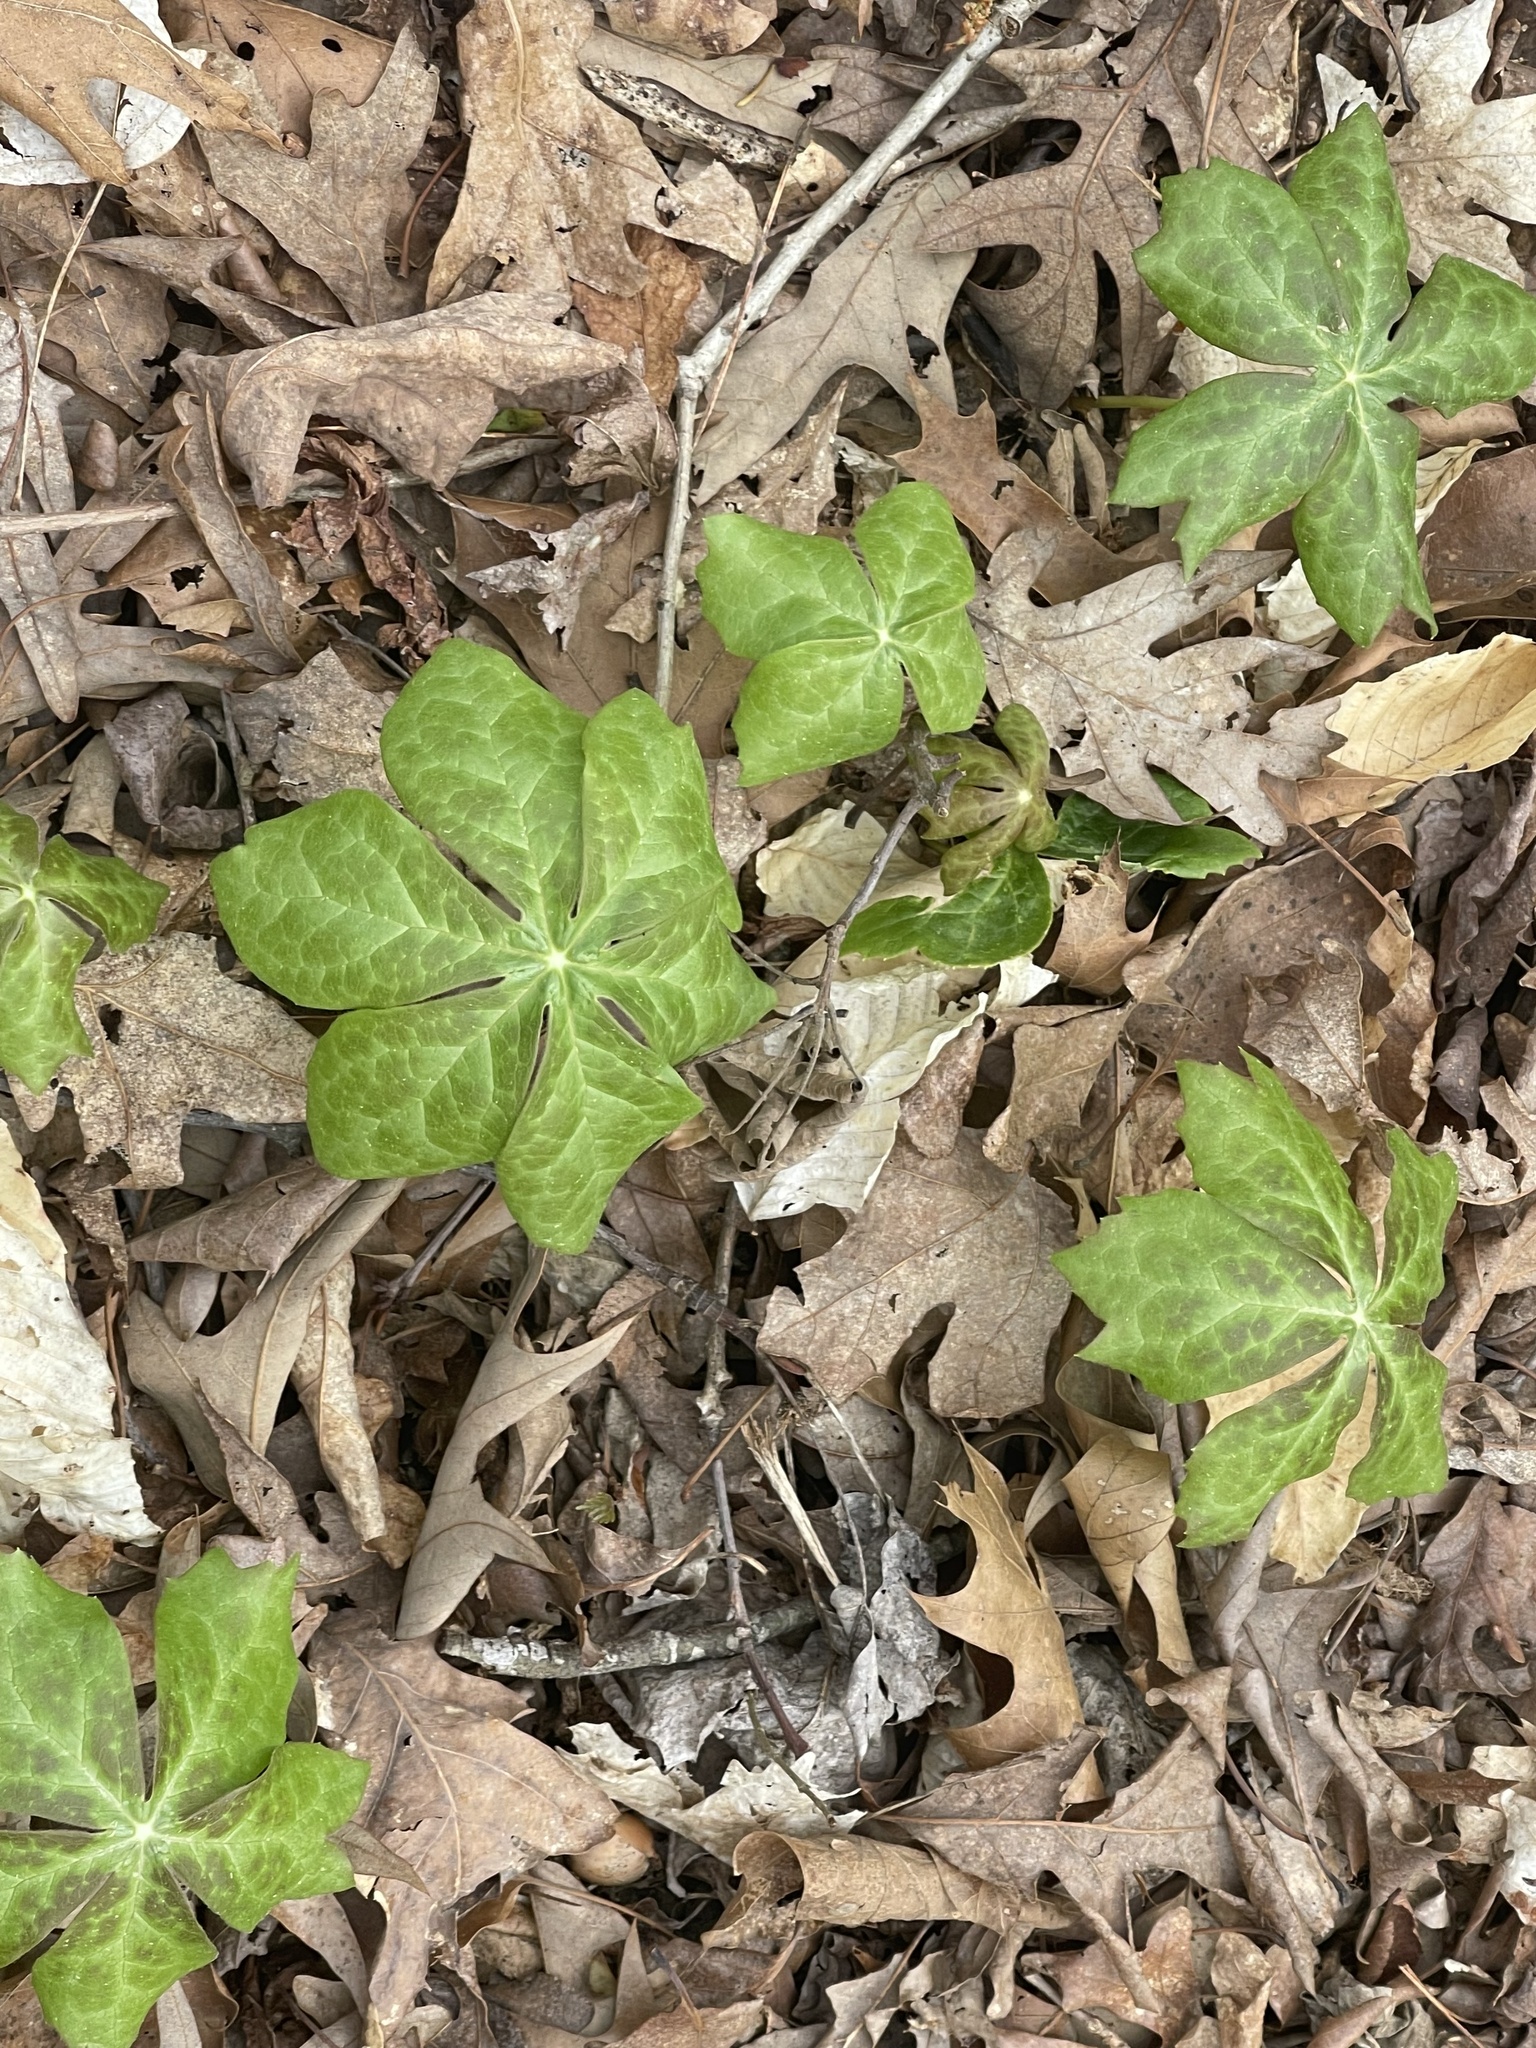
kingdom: Plantae
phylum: Tracheophyta
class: Magnoliopsida
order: Ranunculales
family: Berberidaceae
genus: Podophyllum
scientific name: Podophyllum peltatum
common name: Wild mandrake
